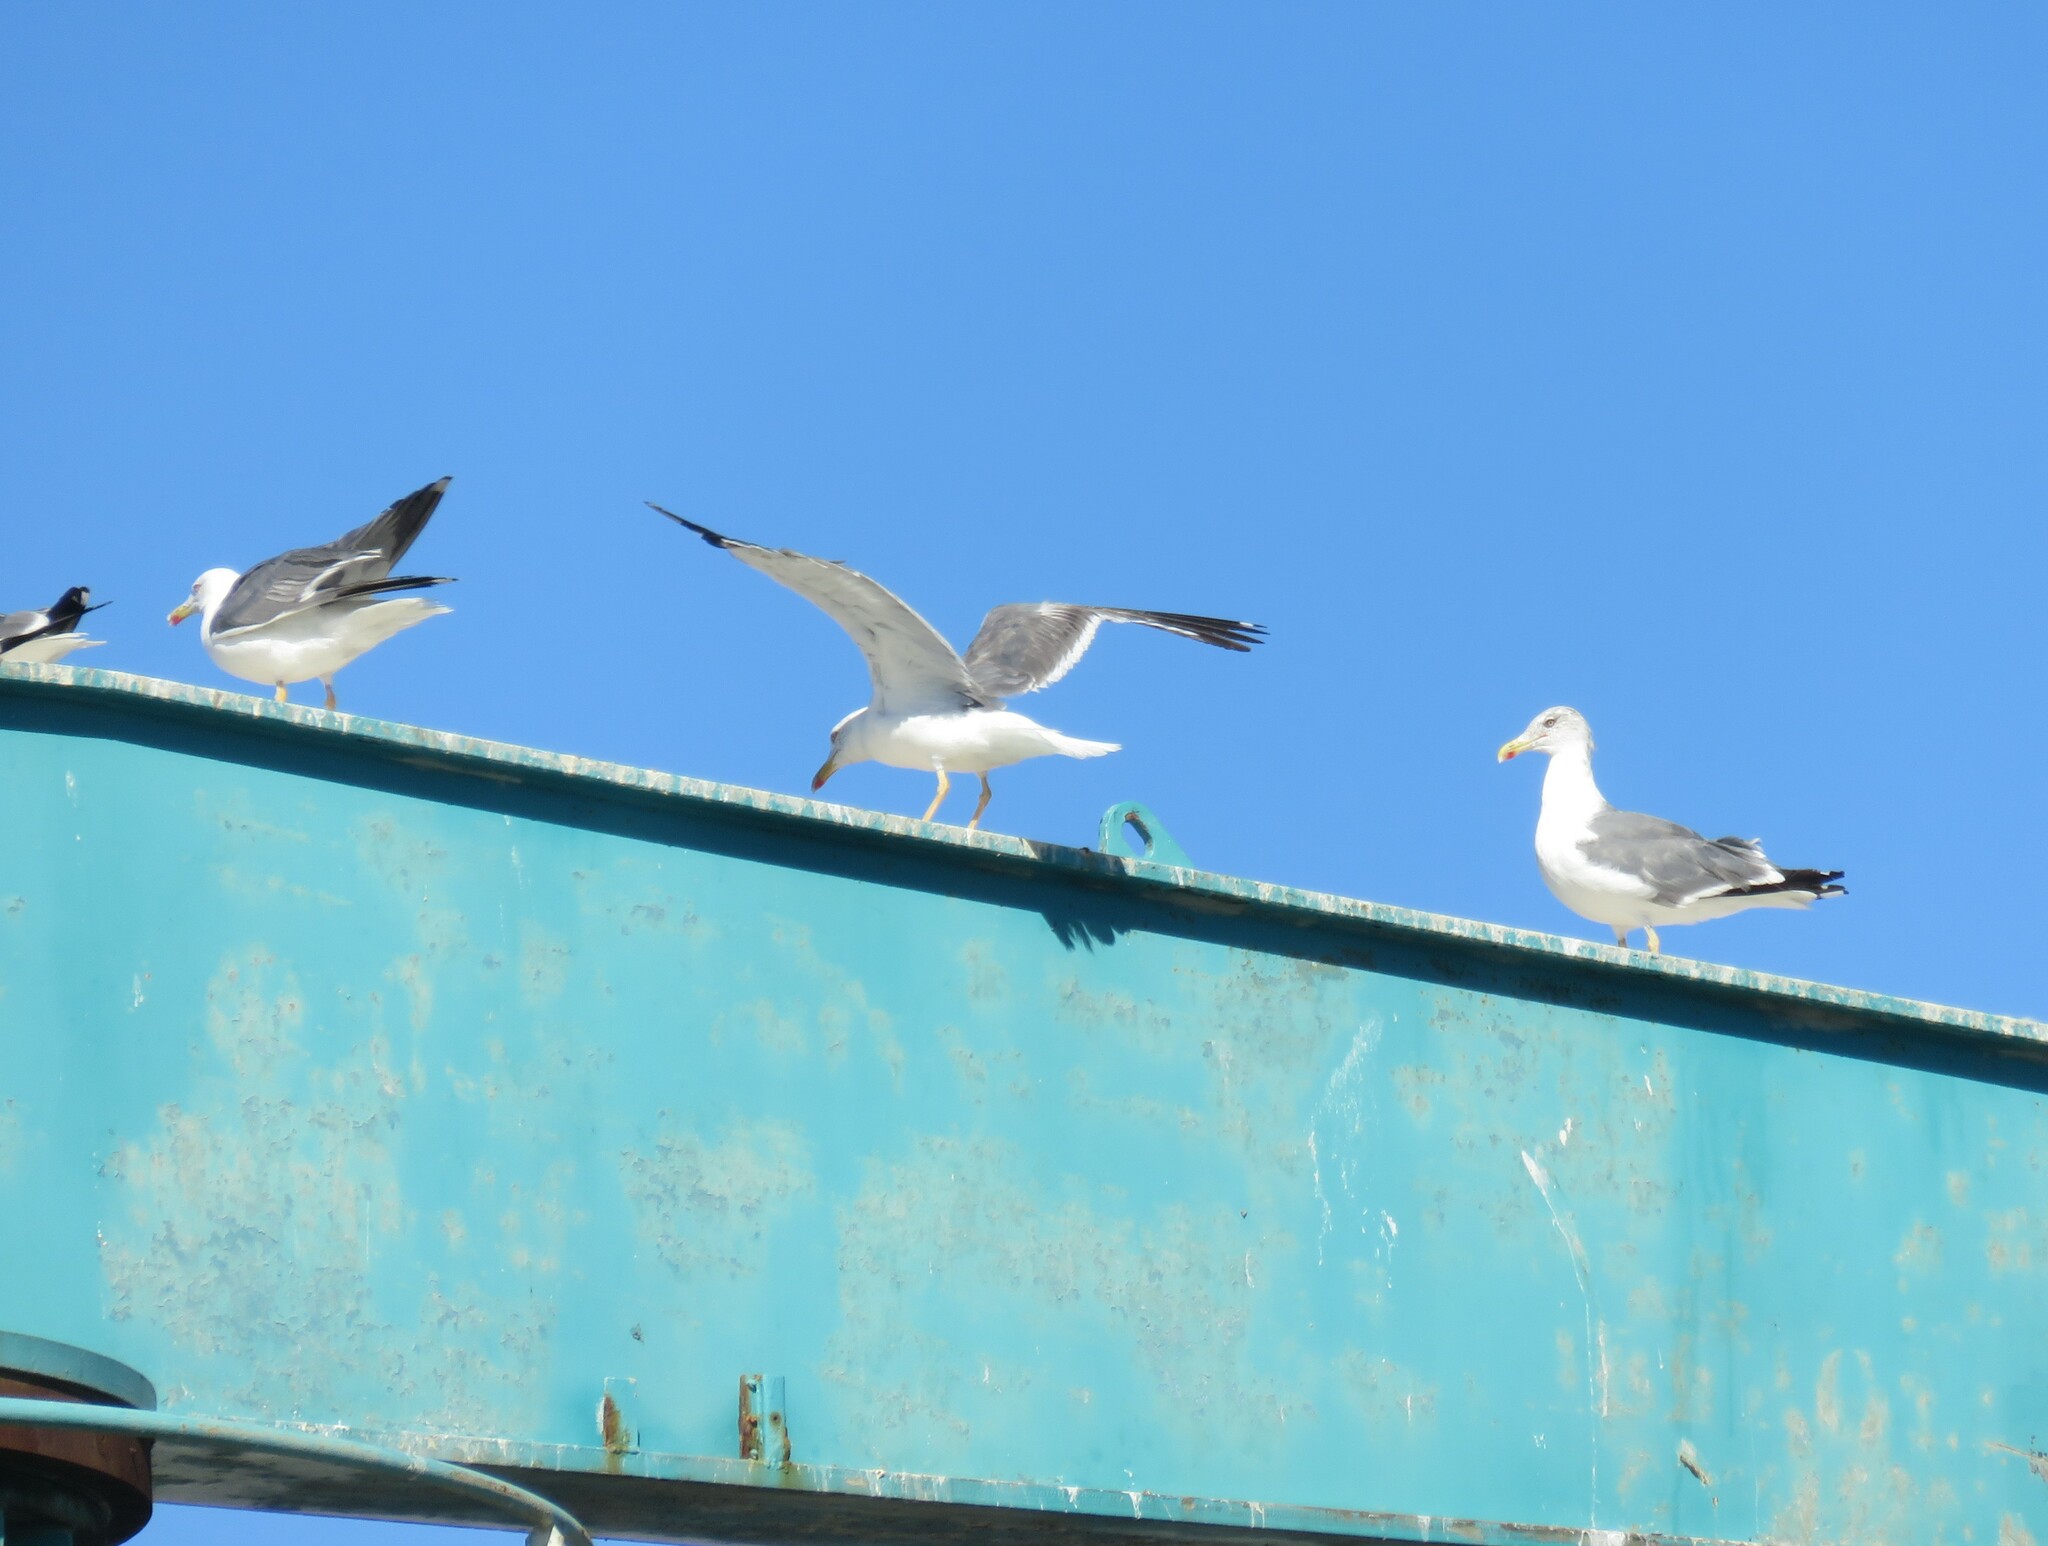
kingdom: Animalia
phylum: Chordata
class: Aves
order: Charadriiformes
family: Laridae
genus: Larus
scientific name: Larus michahellis
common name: Yellow-legged gull
